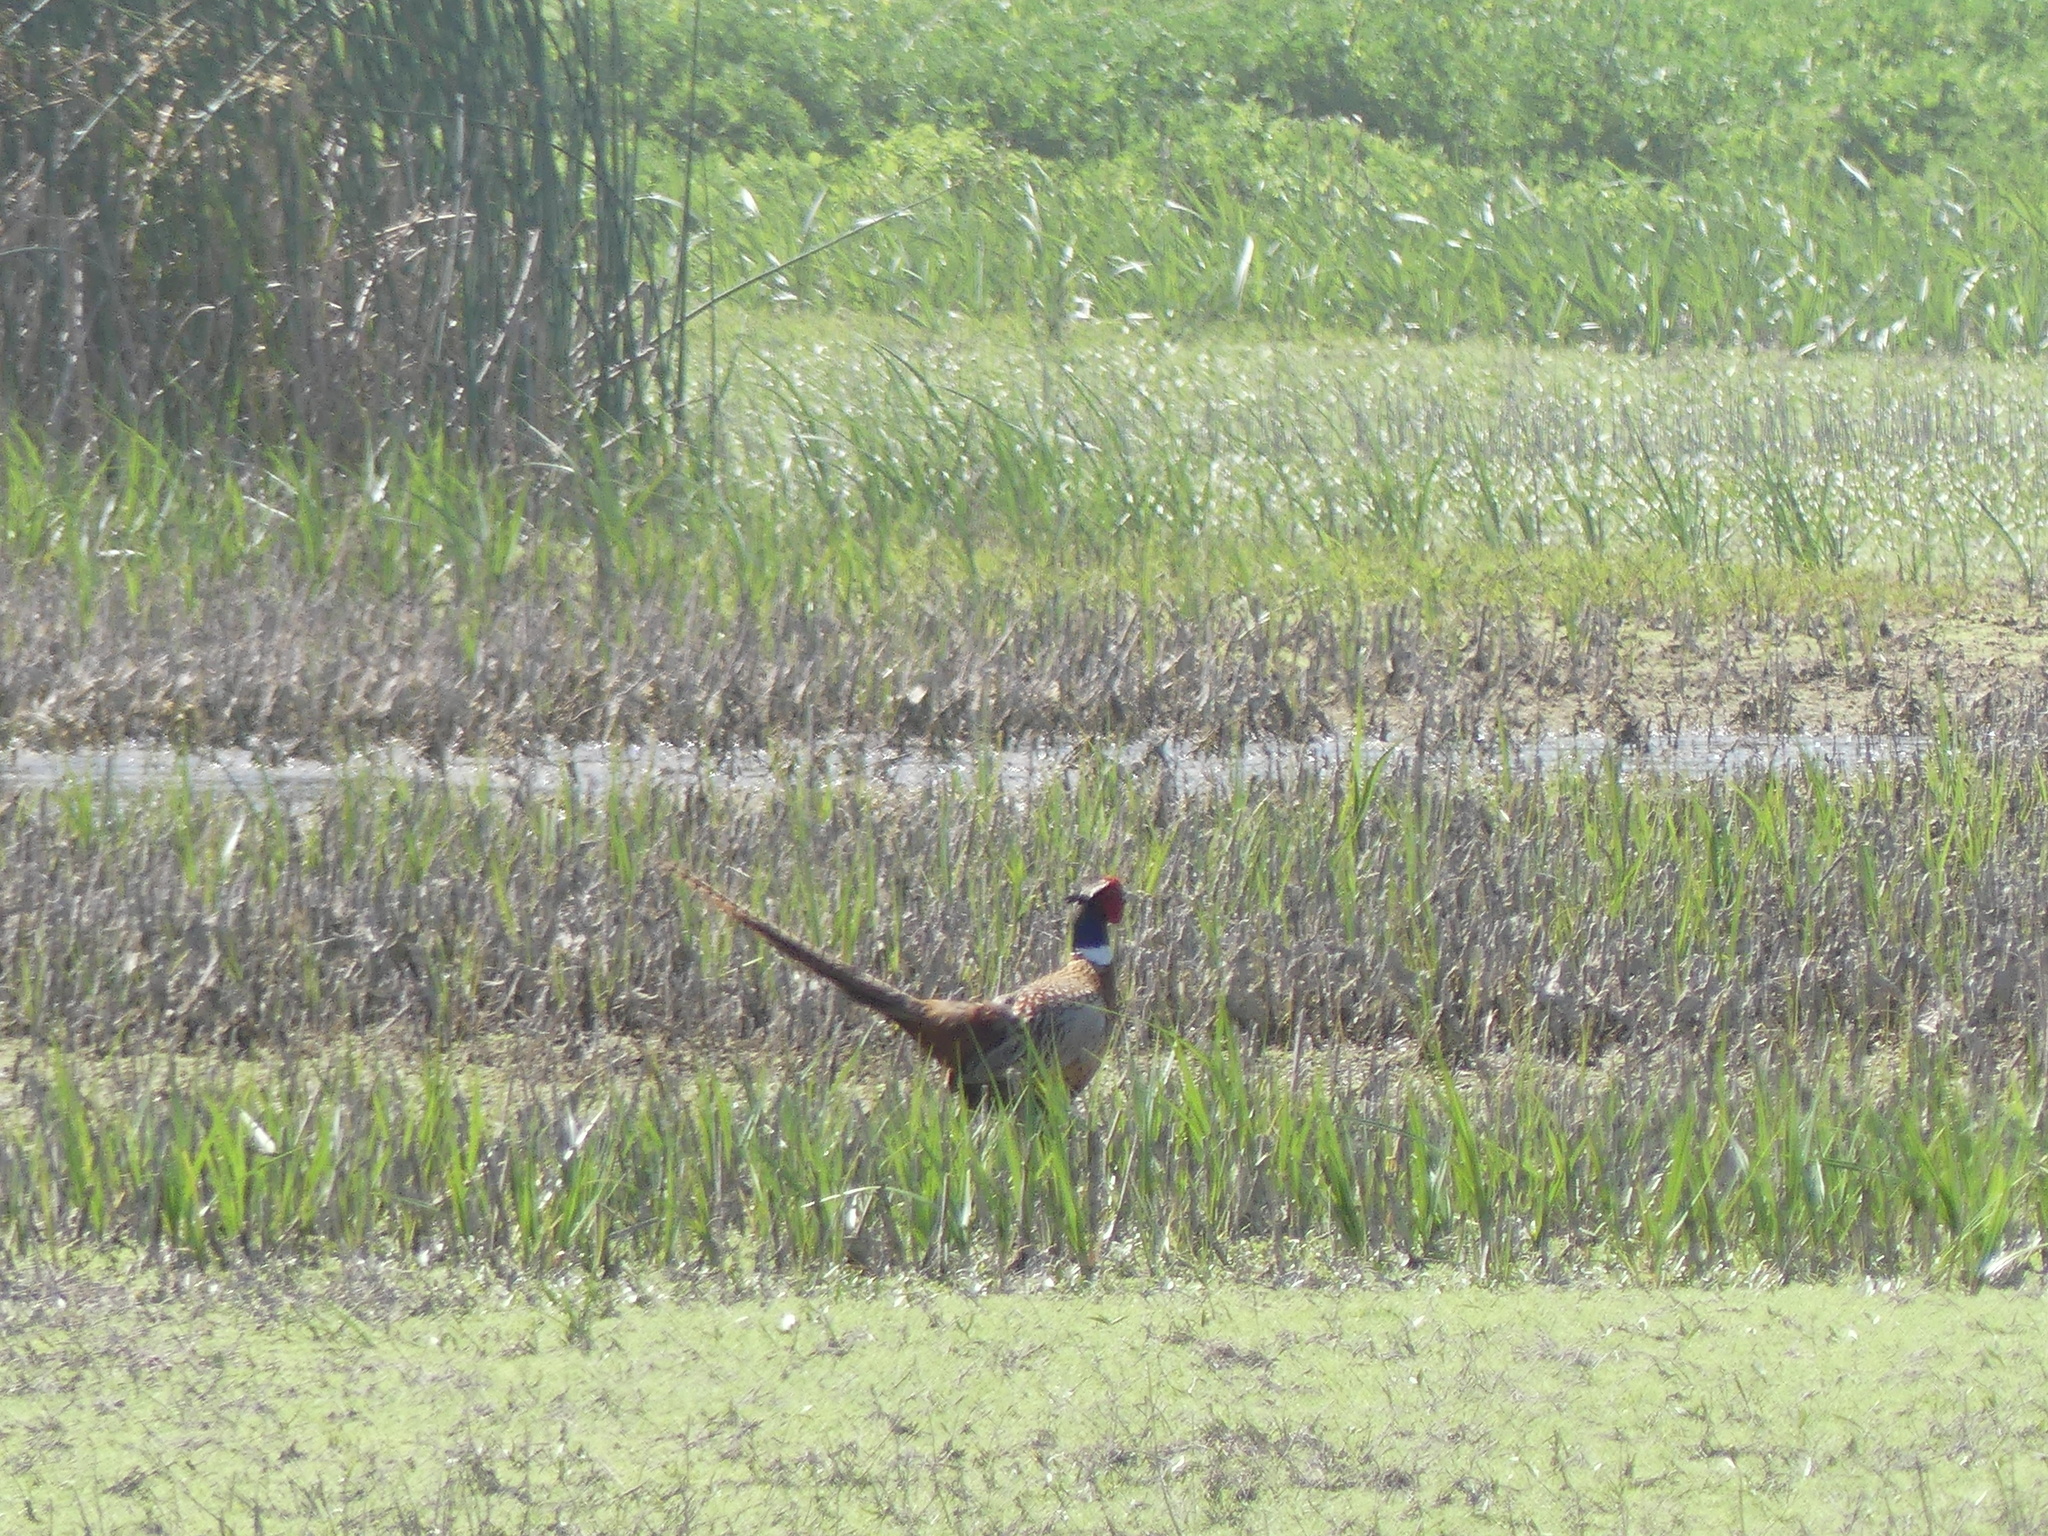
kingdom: Animalia
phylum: Chordata
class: Aves
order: Galliformes
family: Phasianidae
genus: Phasianus
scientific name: Phasianus colchicus
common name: Common pheasant
